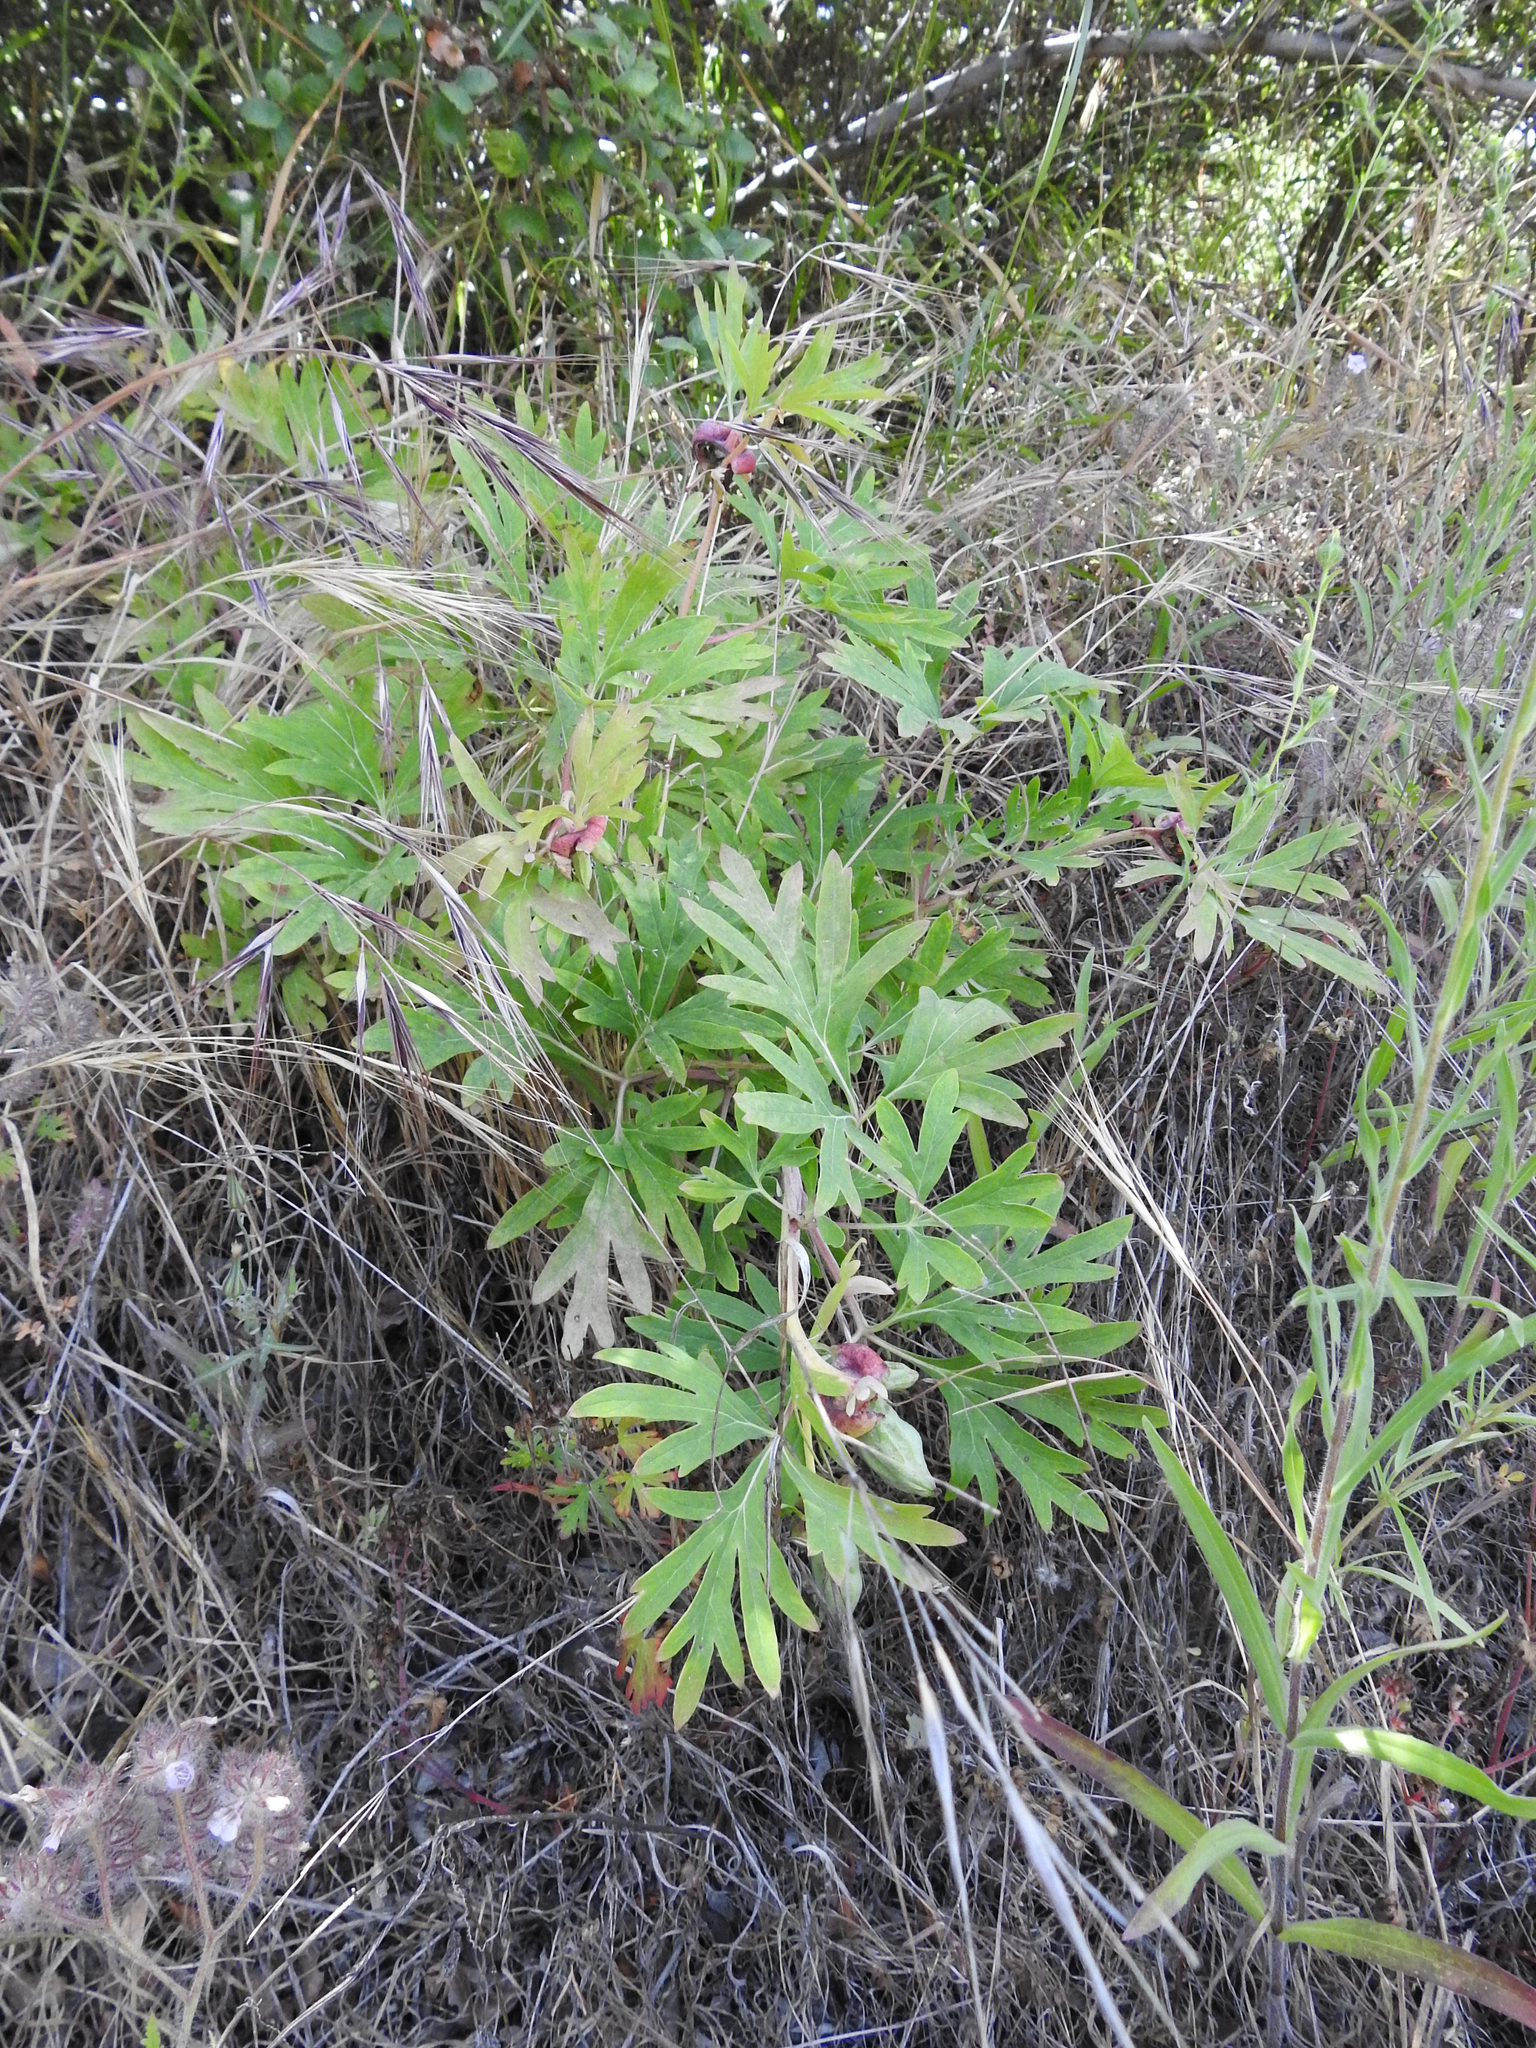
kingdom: Plantae
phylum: Tracheophyta
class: Magnoliopsida
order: Saxifragales
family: Paeoniaceae
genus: Paeonia
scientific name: Paeonia californica
